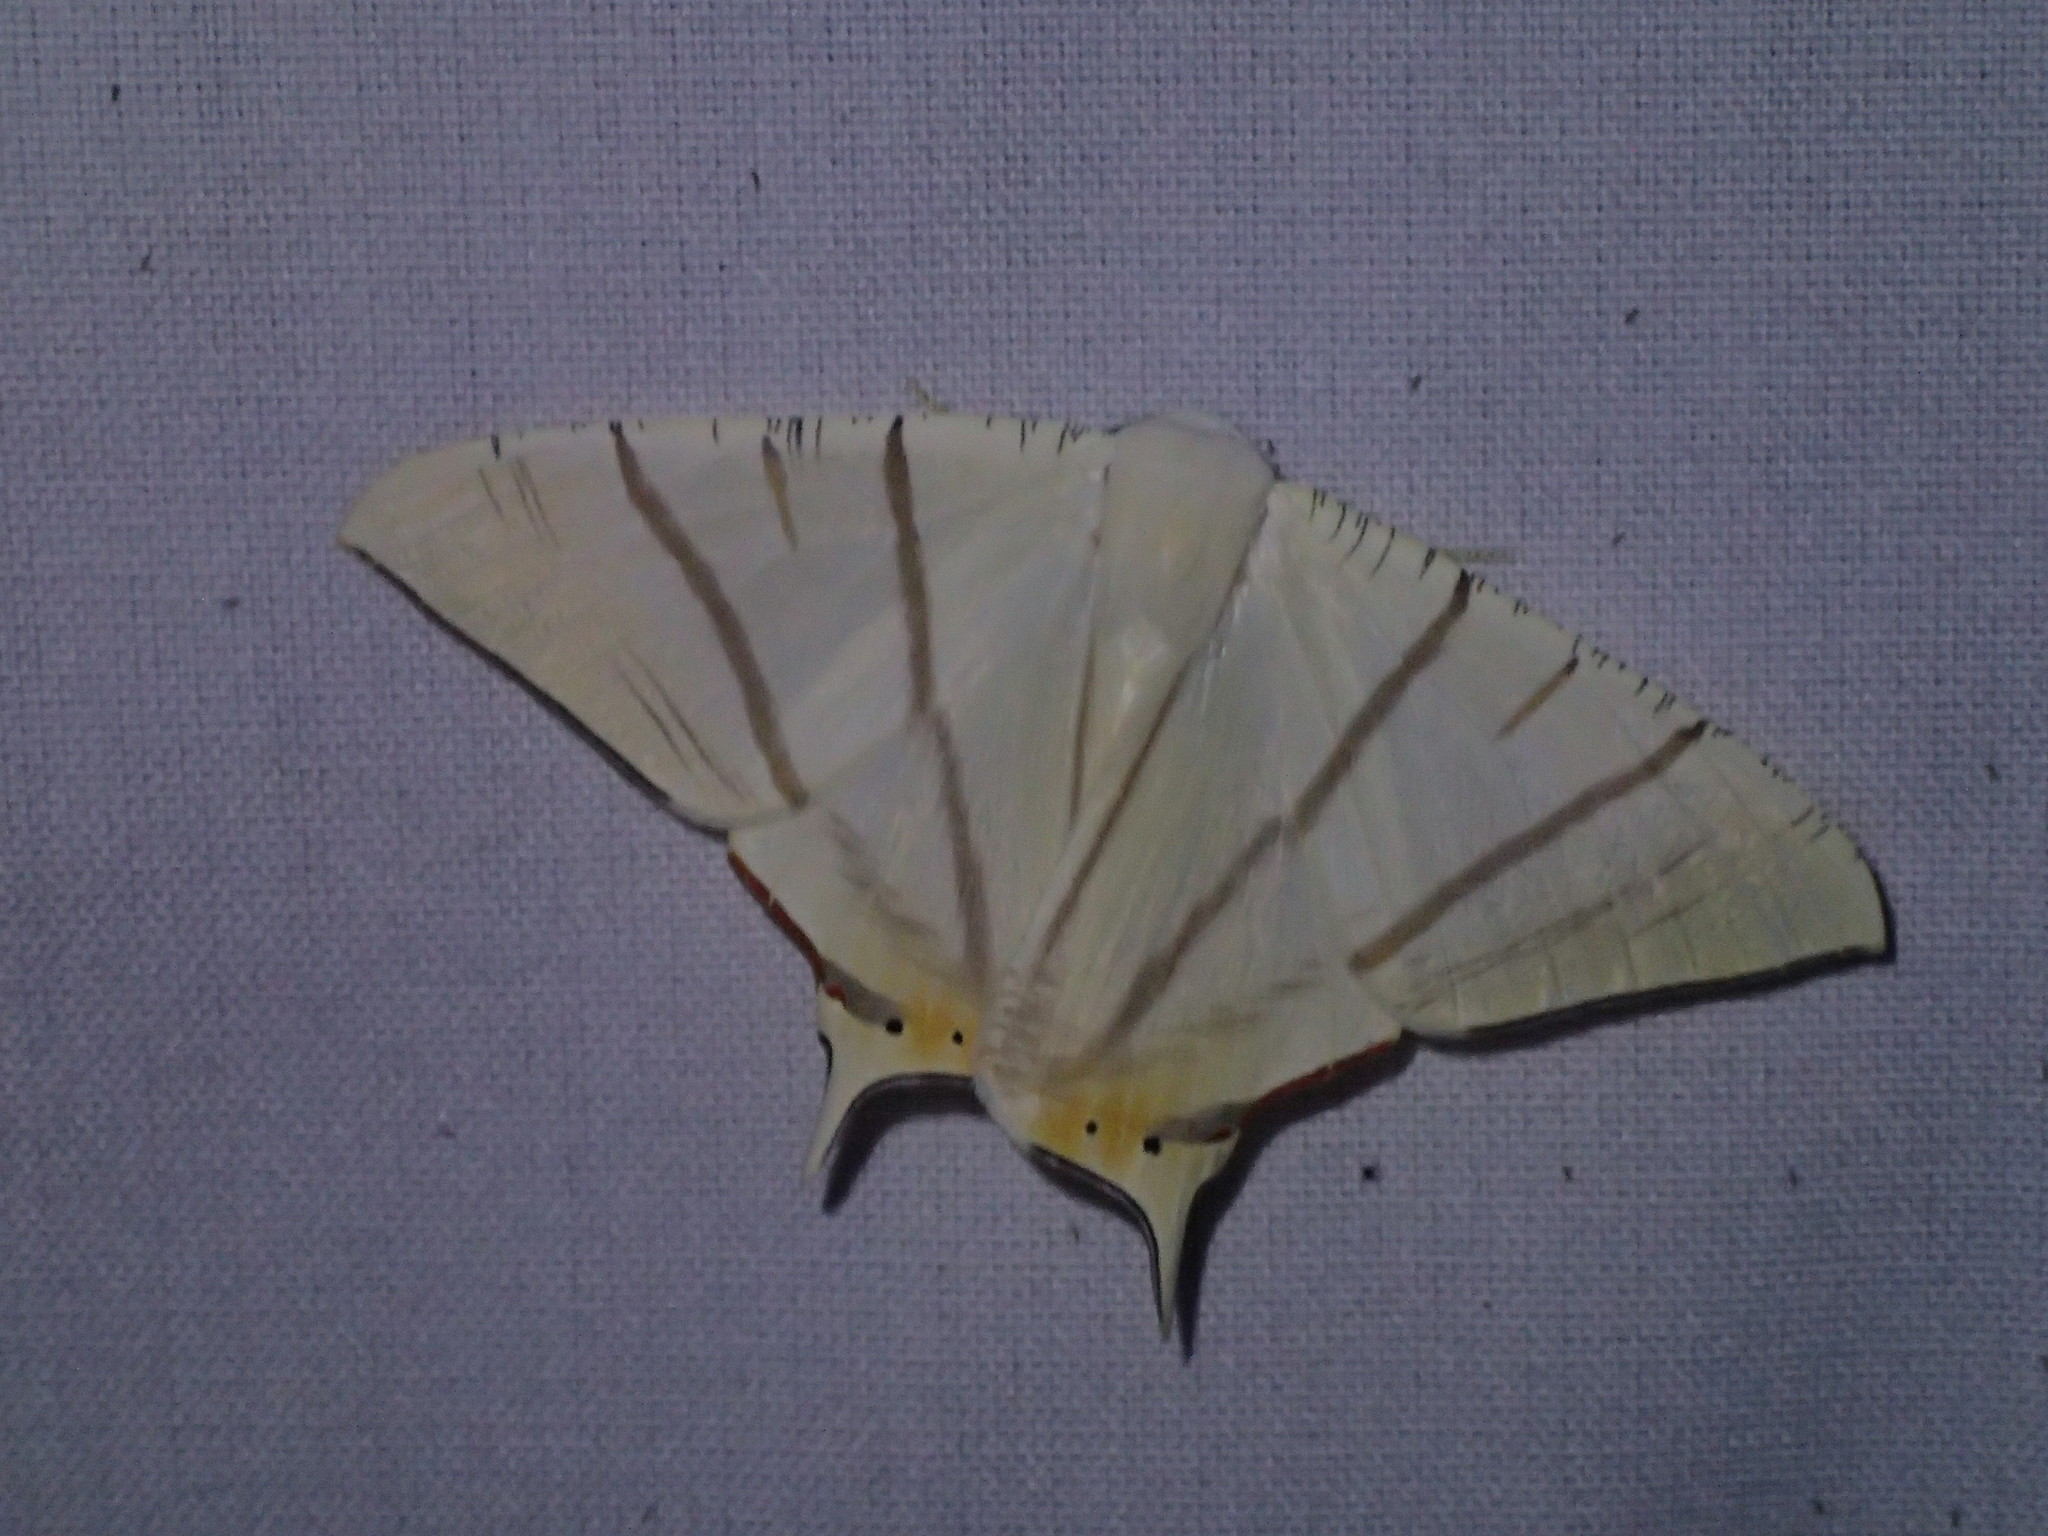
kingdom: Animalia
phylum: Arthropoda
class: Insecta
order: Lepidoptera
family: Geometridae
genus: Ourapteryx
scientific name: Ourapteryx marginata
